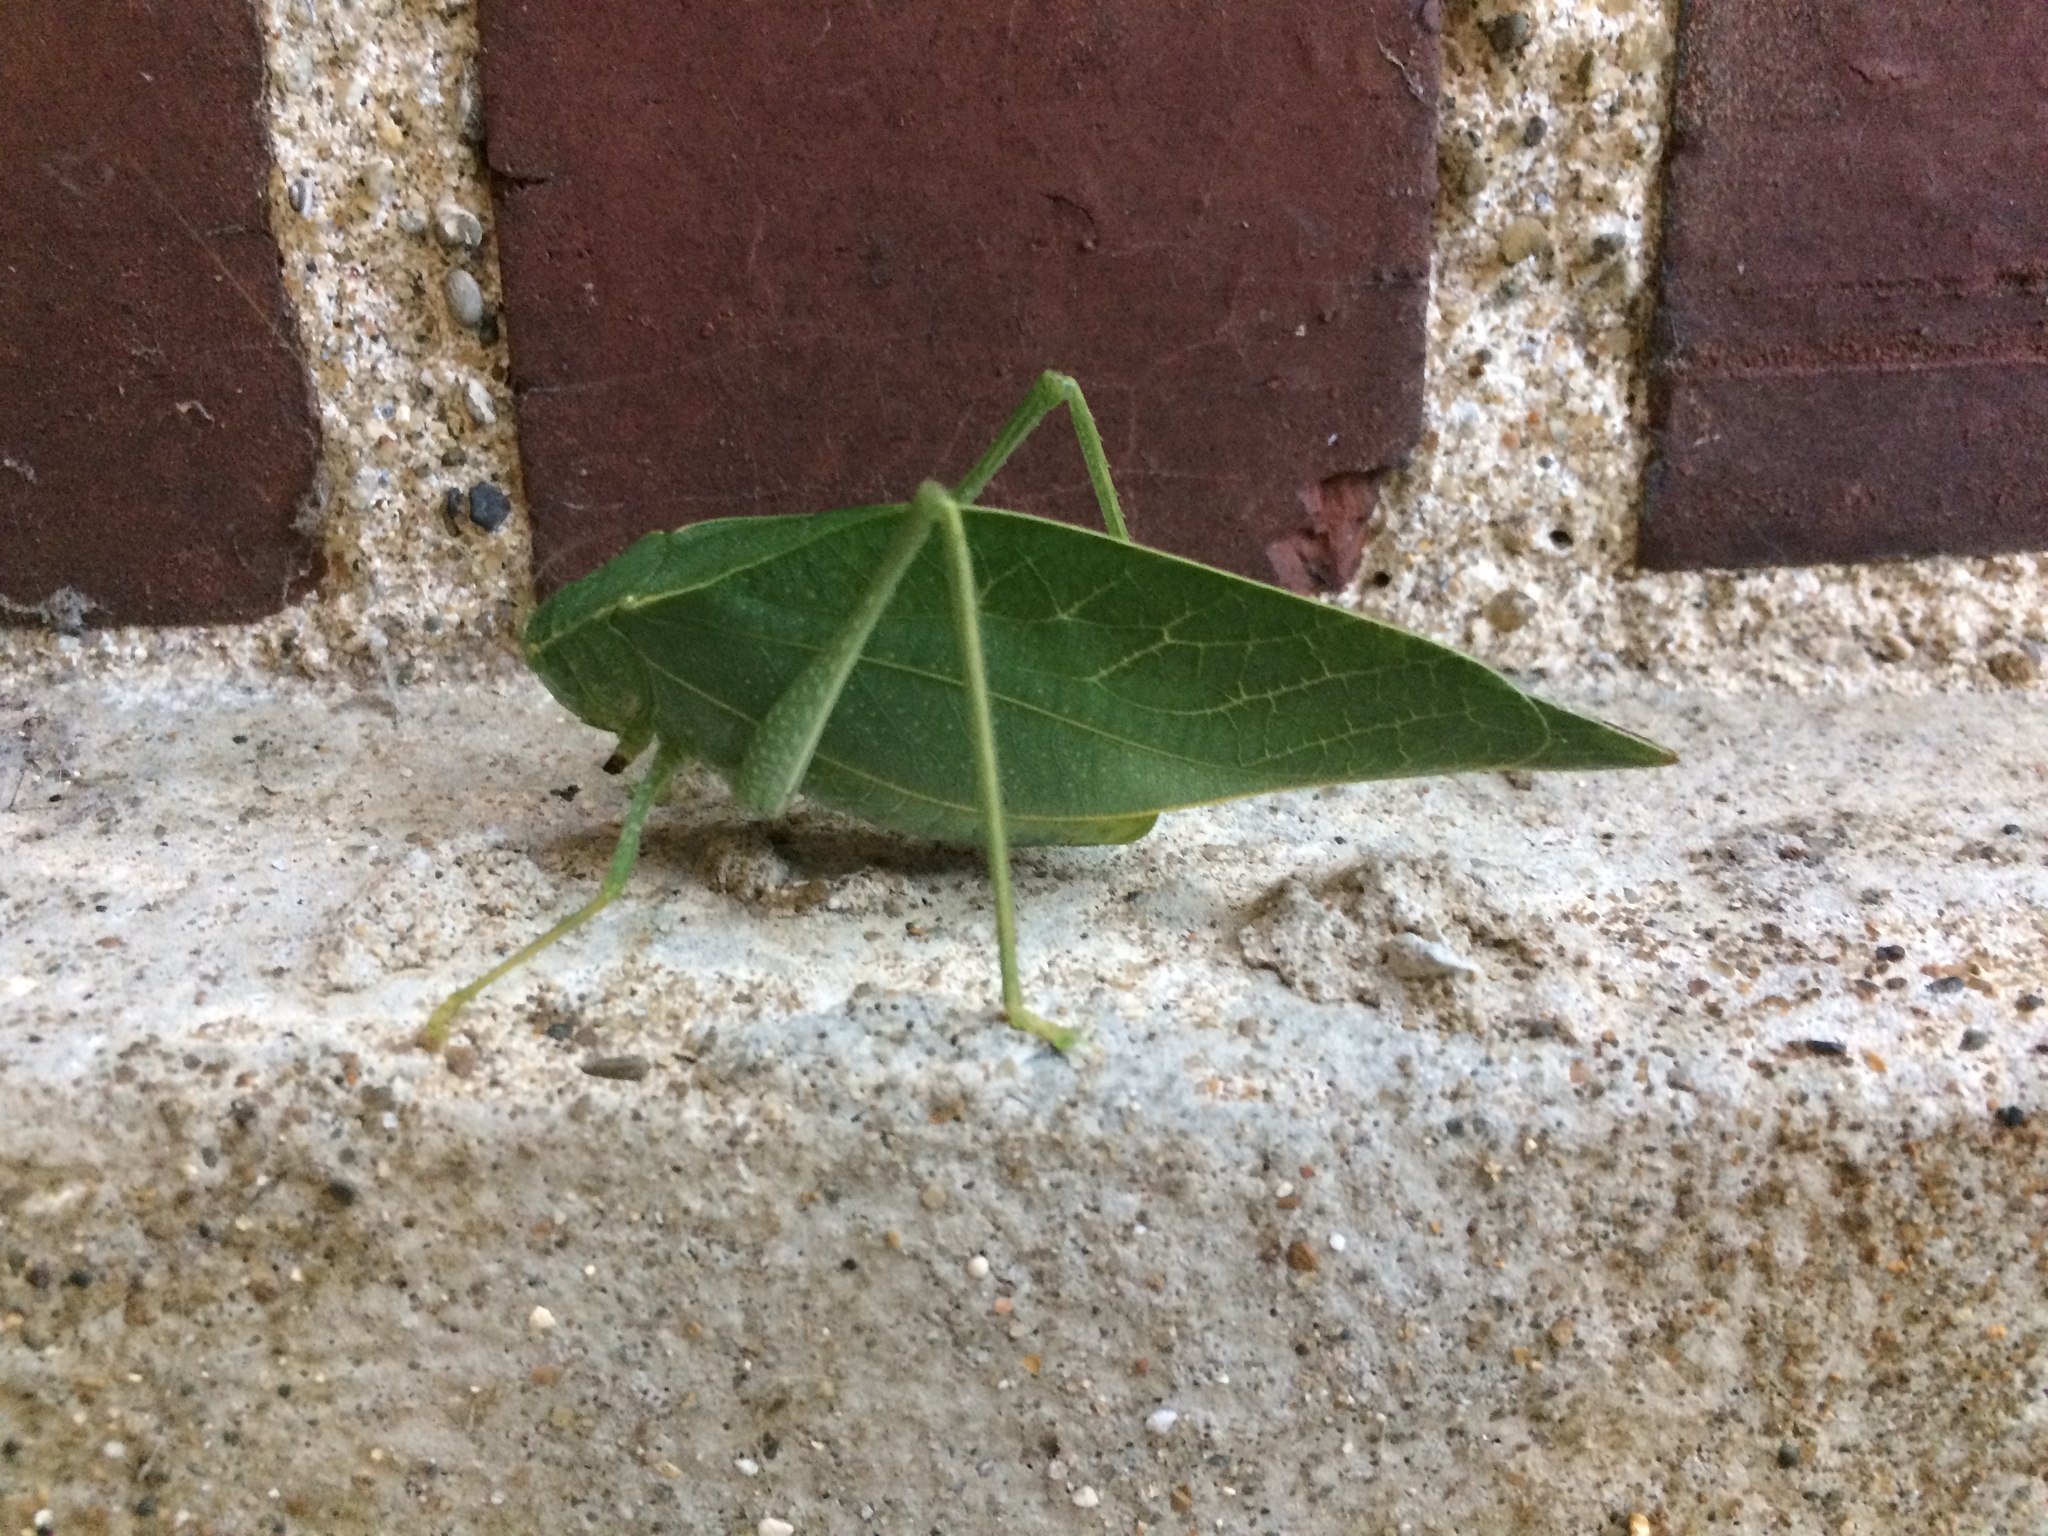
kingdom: Animalia
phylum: Arthropoda
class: Insecta
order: Orthoptera
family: Tettigoniidae
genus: Microcentrum
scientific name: Microcentrum rhombifolium
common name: Broad-winged katydid
